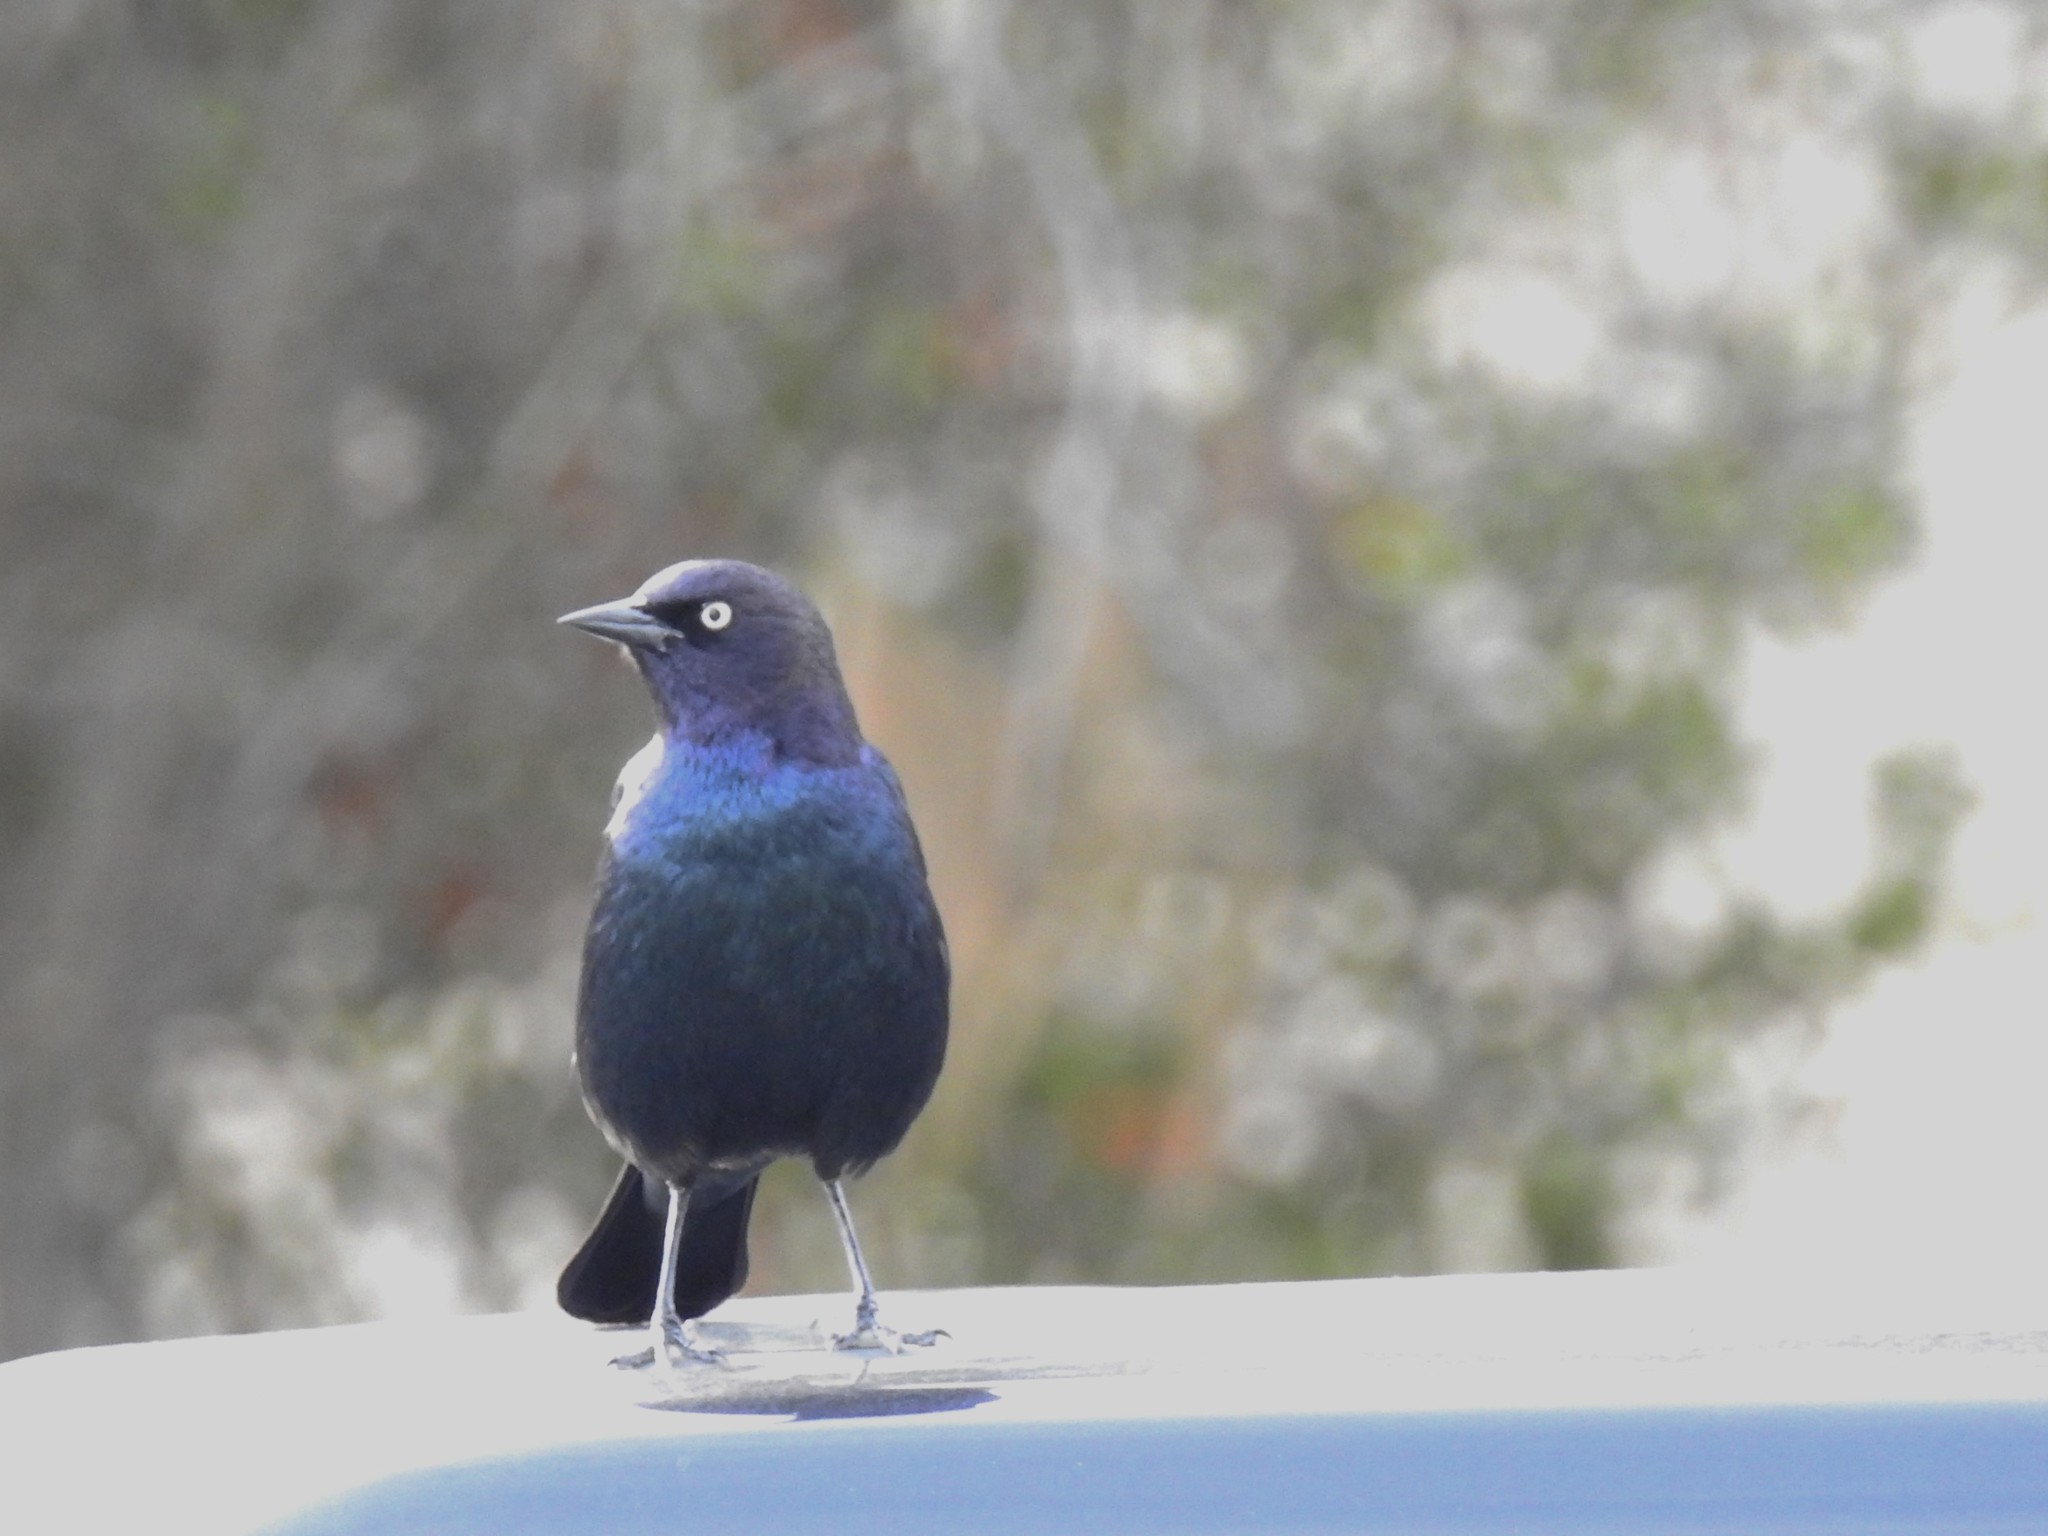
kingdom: Animalia
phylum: Chordata
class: Aves
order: Passeriformes
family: Icteridae
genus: Euphagus
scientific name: Euphagus cyanocephalus
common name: Brewer's blackbird
